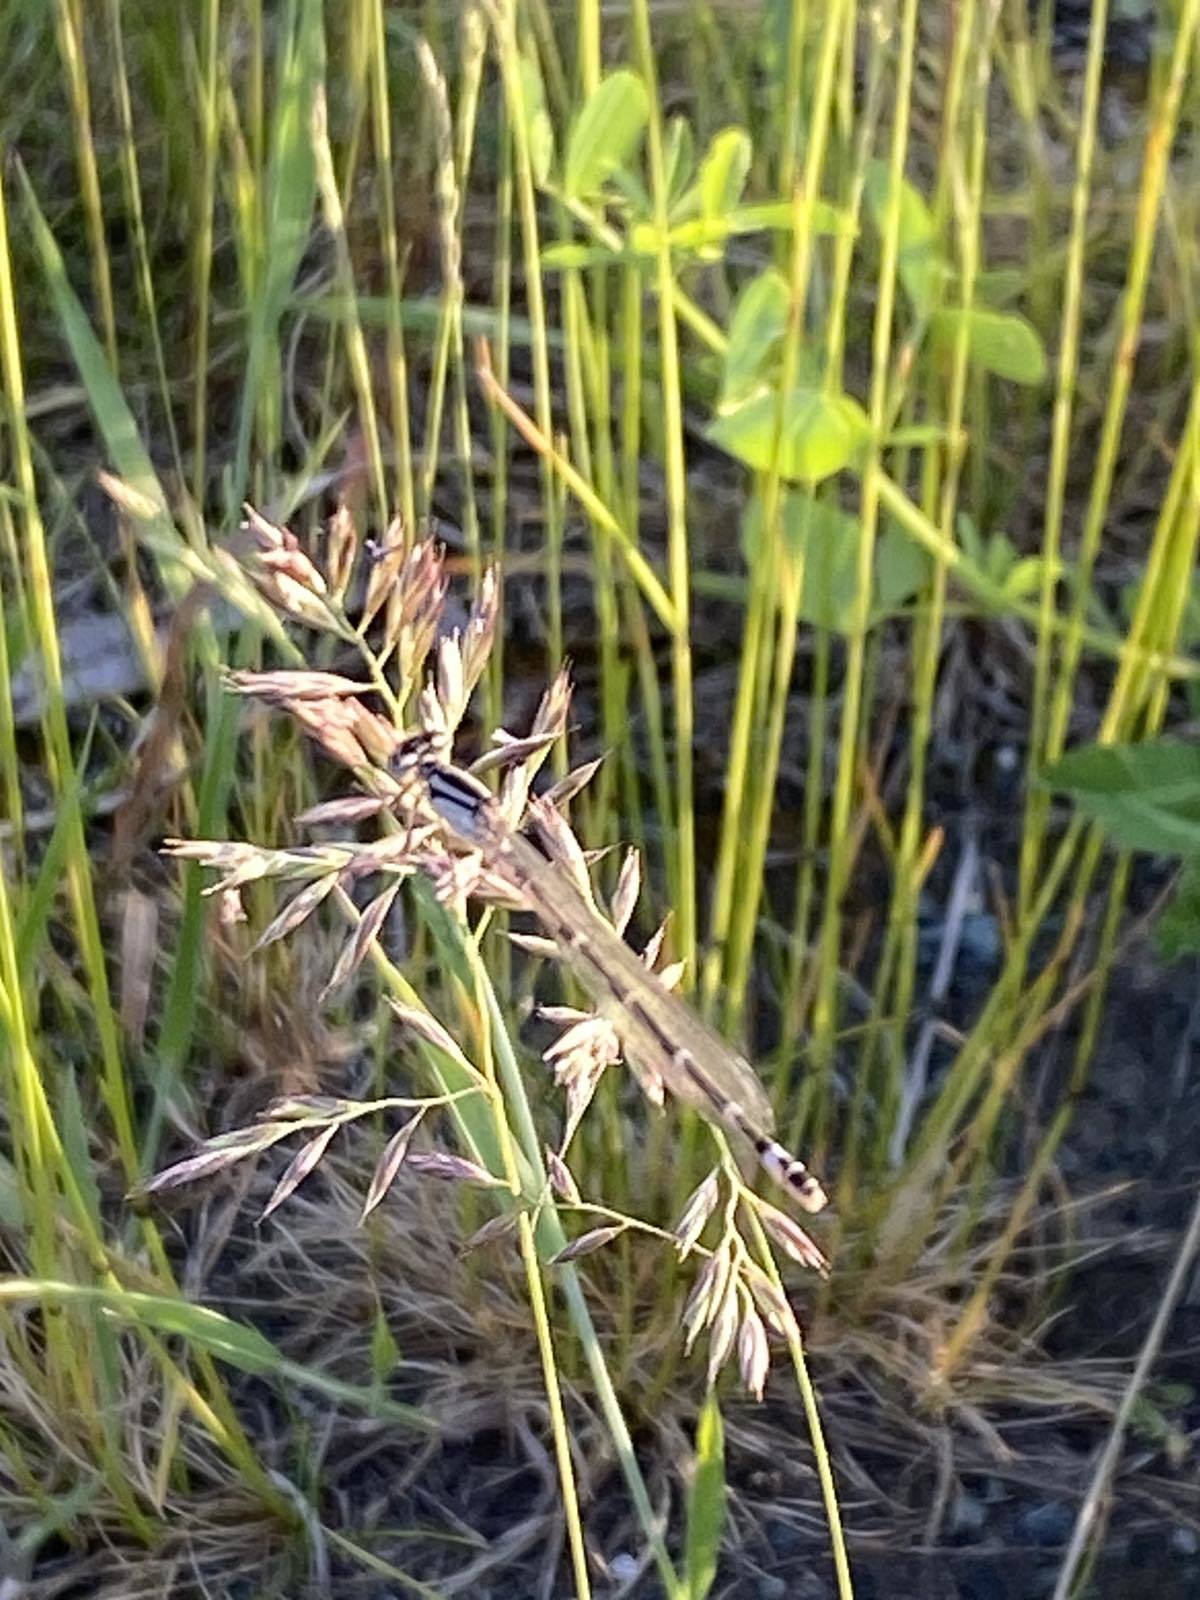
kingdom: Animalia
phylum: Arthropoda
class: Insecta
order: Odonata
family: Coenagrionidae
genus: Enallagma
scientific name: Enallagma cyathigerum
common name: Common blue damselfly
